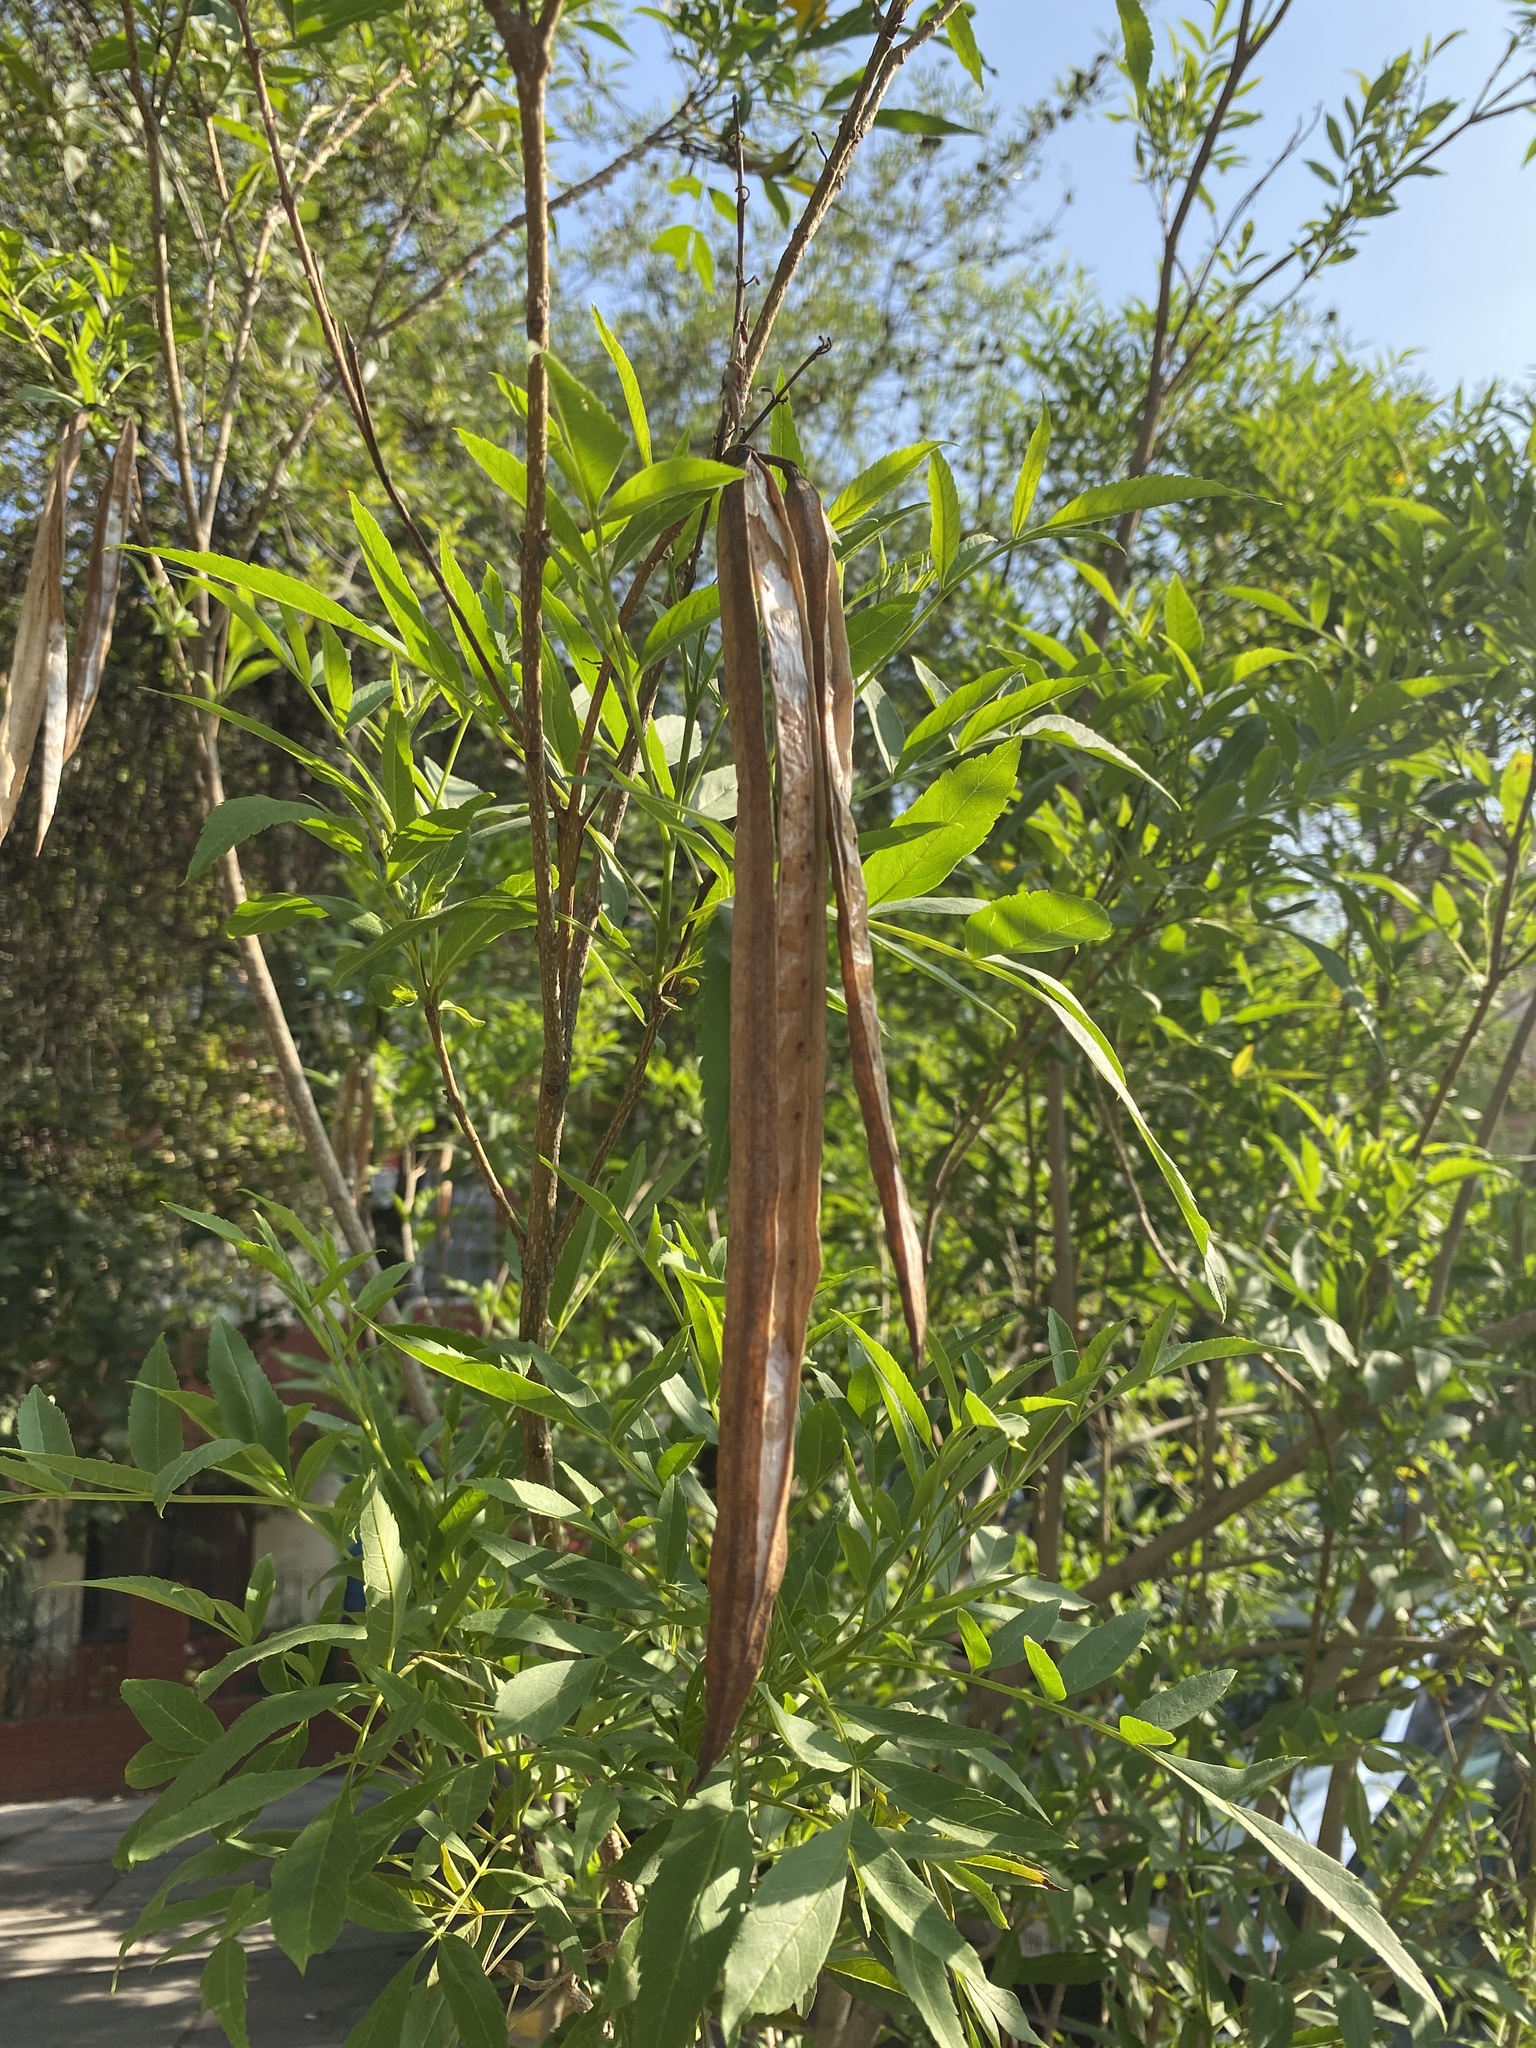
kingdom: Plantae
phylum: Tracheophyta
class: Magnoliopsida
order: Lamiales
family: Bignoniaceae
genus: Tecoma
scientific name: Tecoma stans
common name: Yellow trumpetbush
